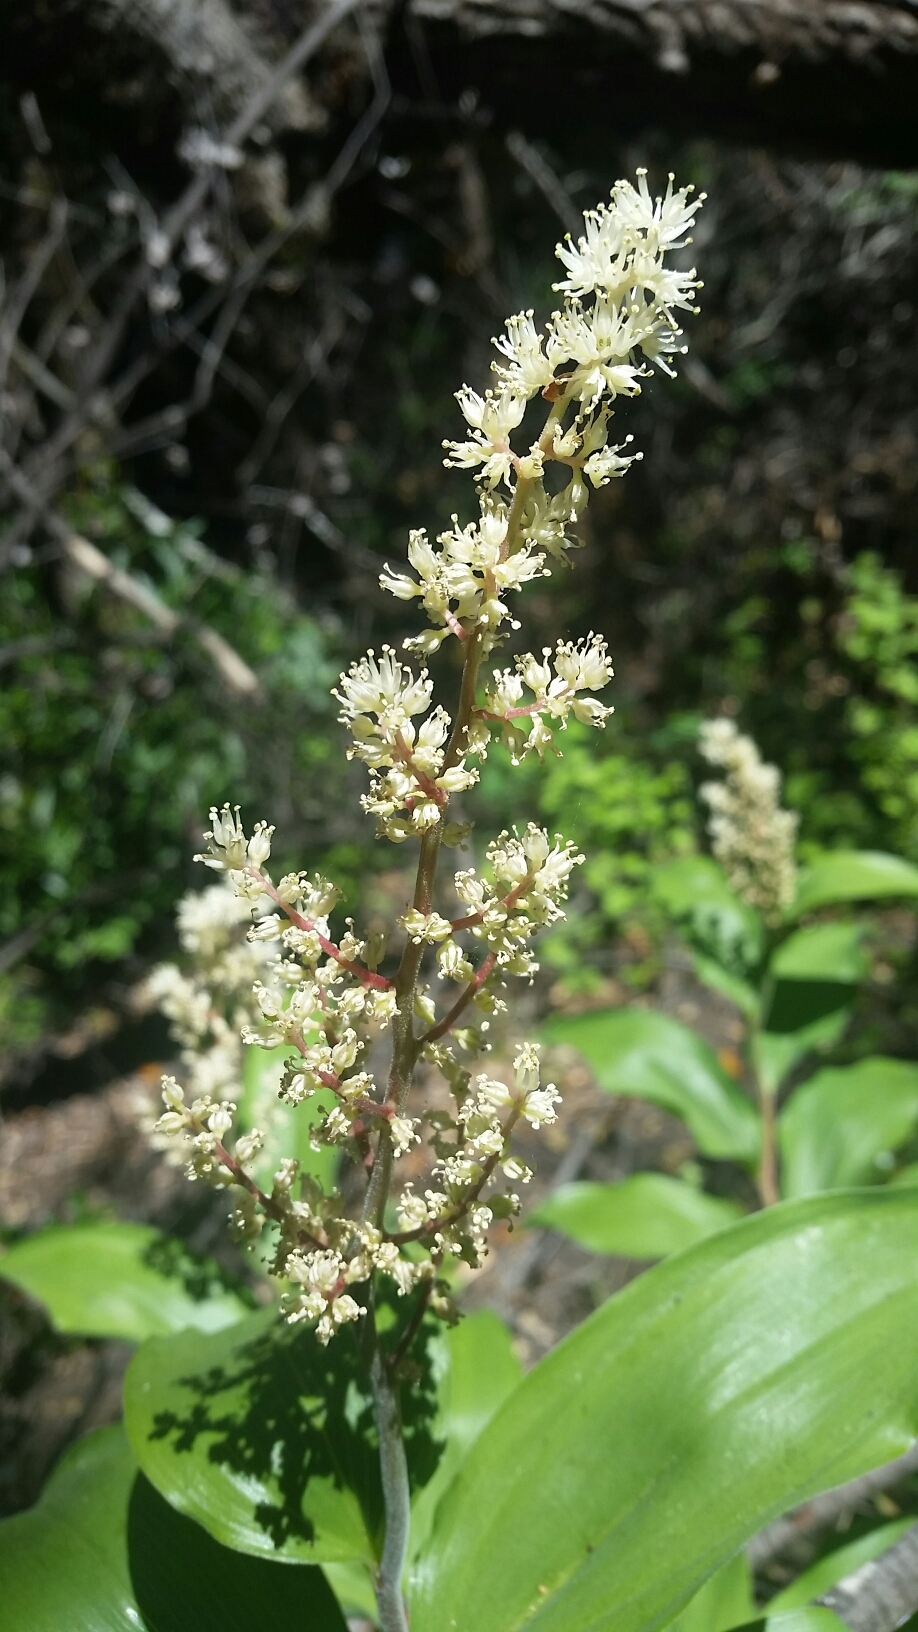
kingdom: Plantae
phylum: Tracheophyta
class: Liliopsida
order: Asparagales
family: Asparagaceae
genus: Maianthemum
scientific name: Maianthemum racemosum
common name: False spikenard
